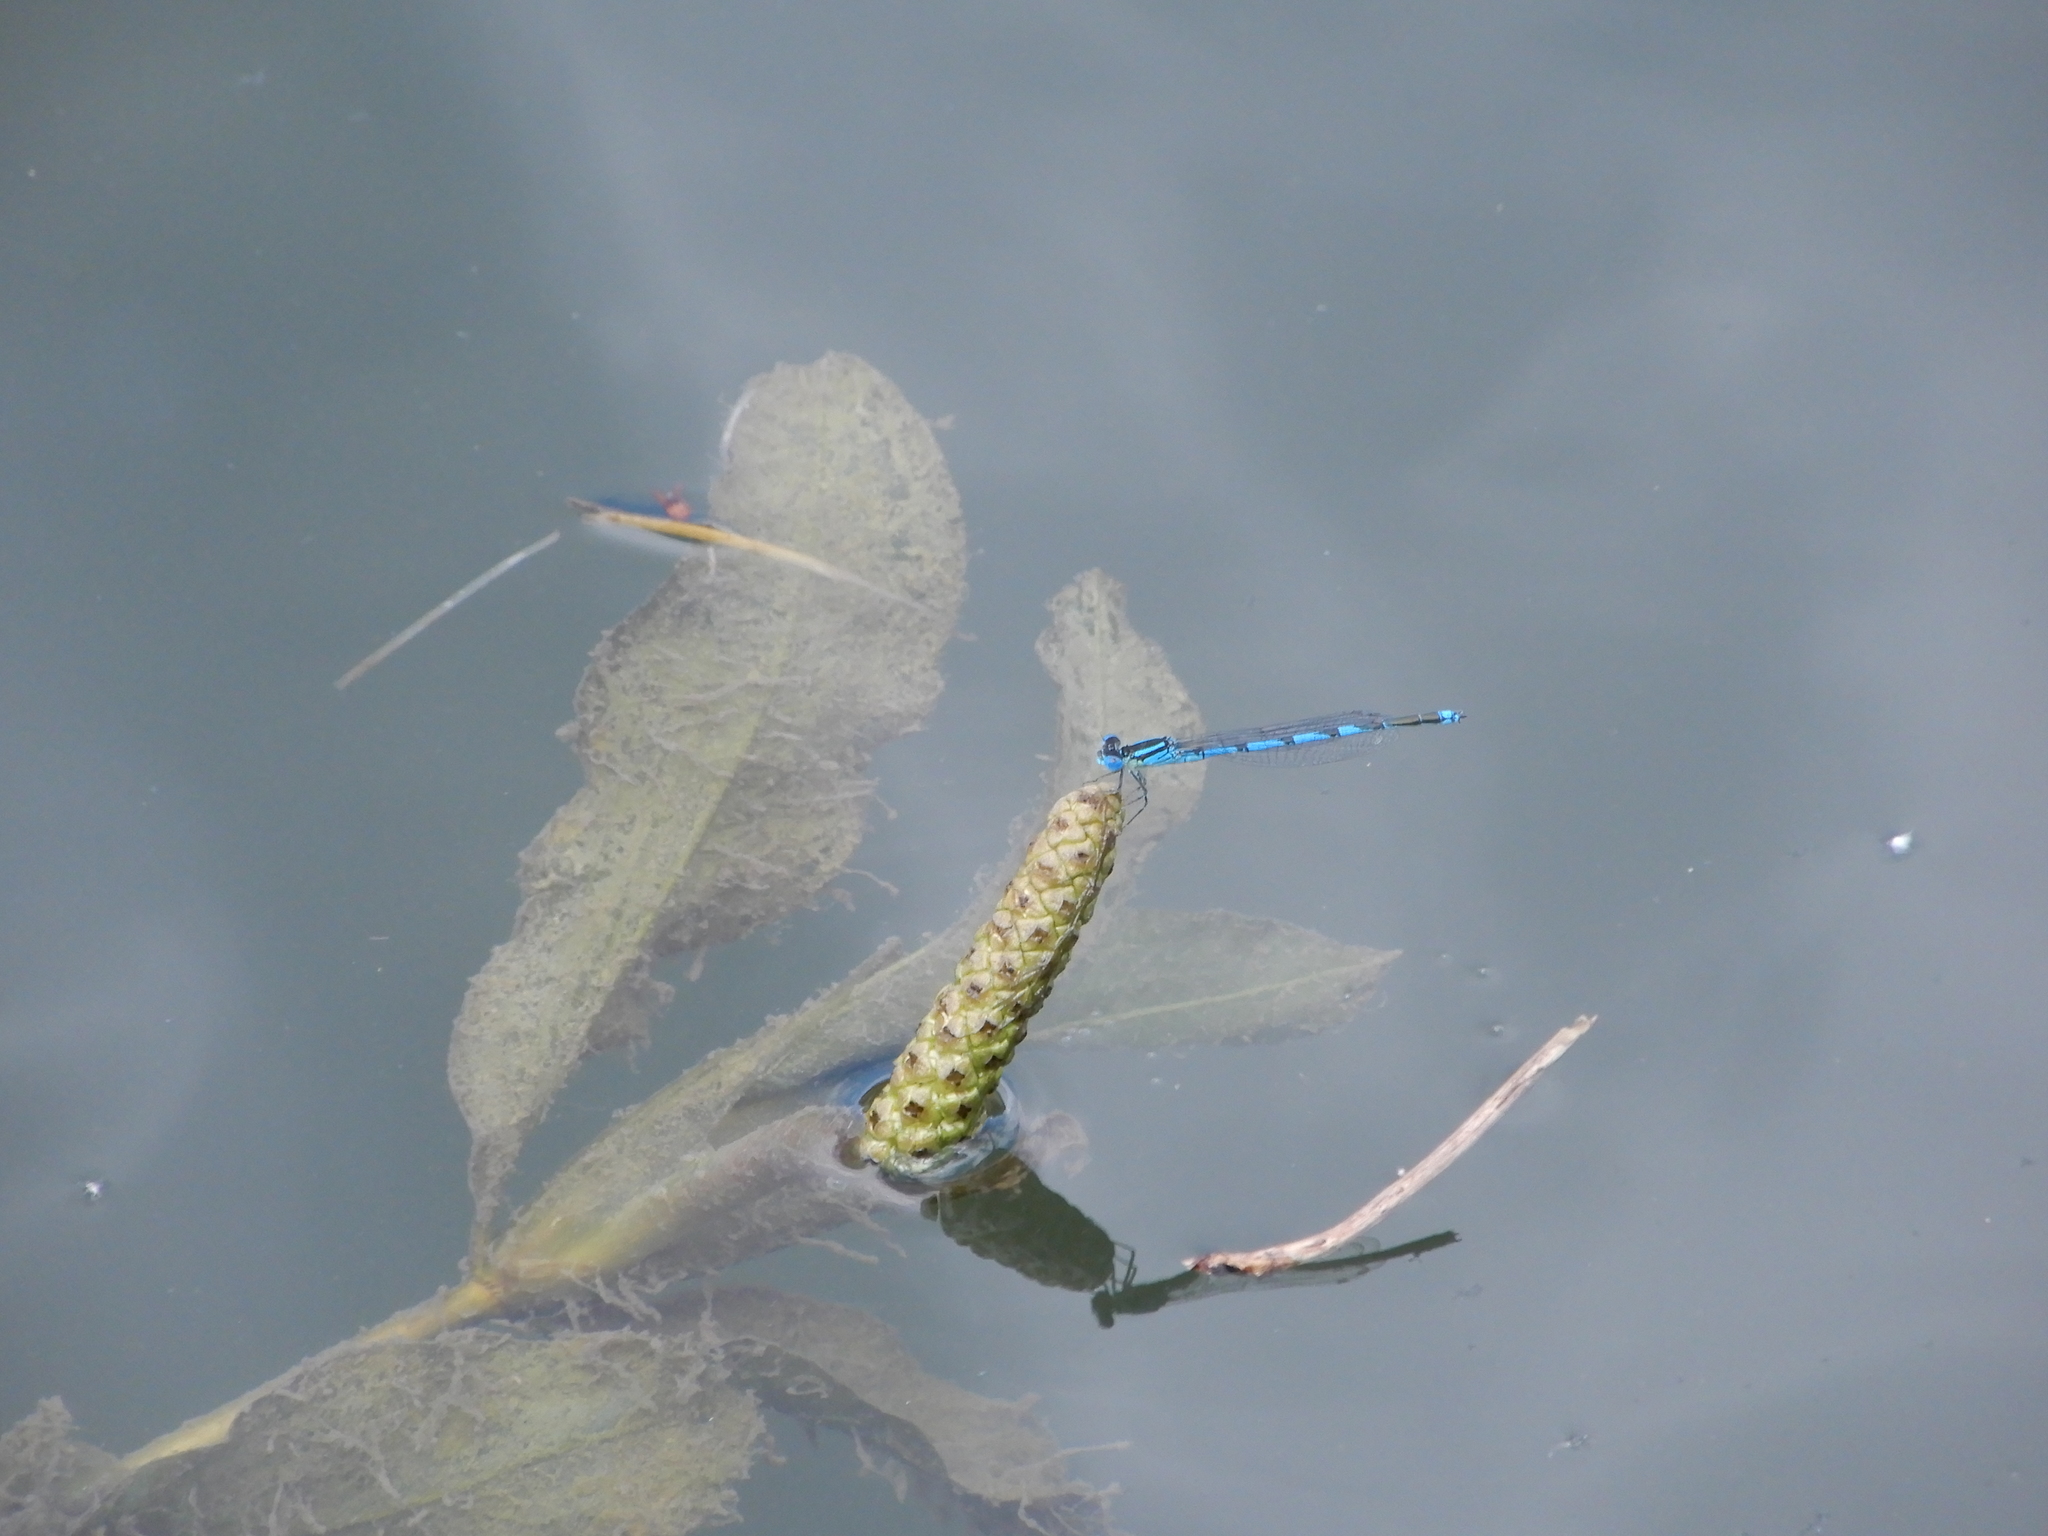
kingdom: Animalia
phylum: Arthropoda
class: Insecta
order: Odonata
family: Coenagrionidae
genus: Erythromma
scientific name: Erythromma lindenii
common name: Blue-eye
